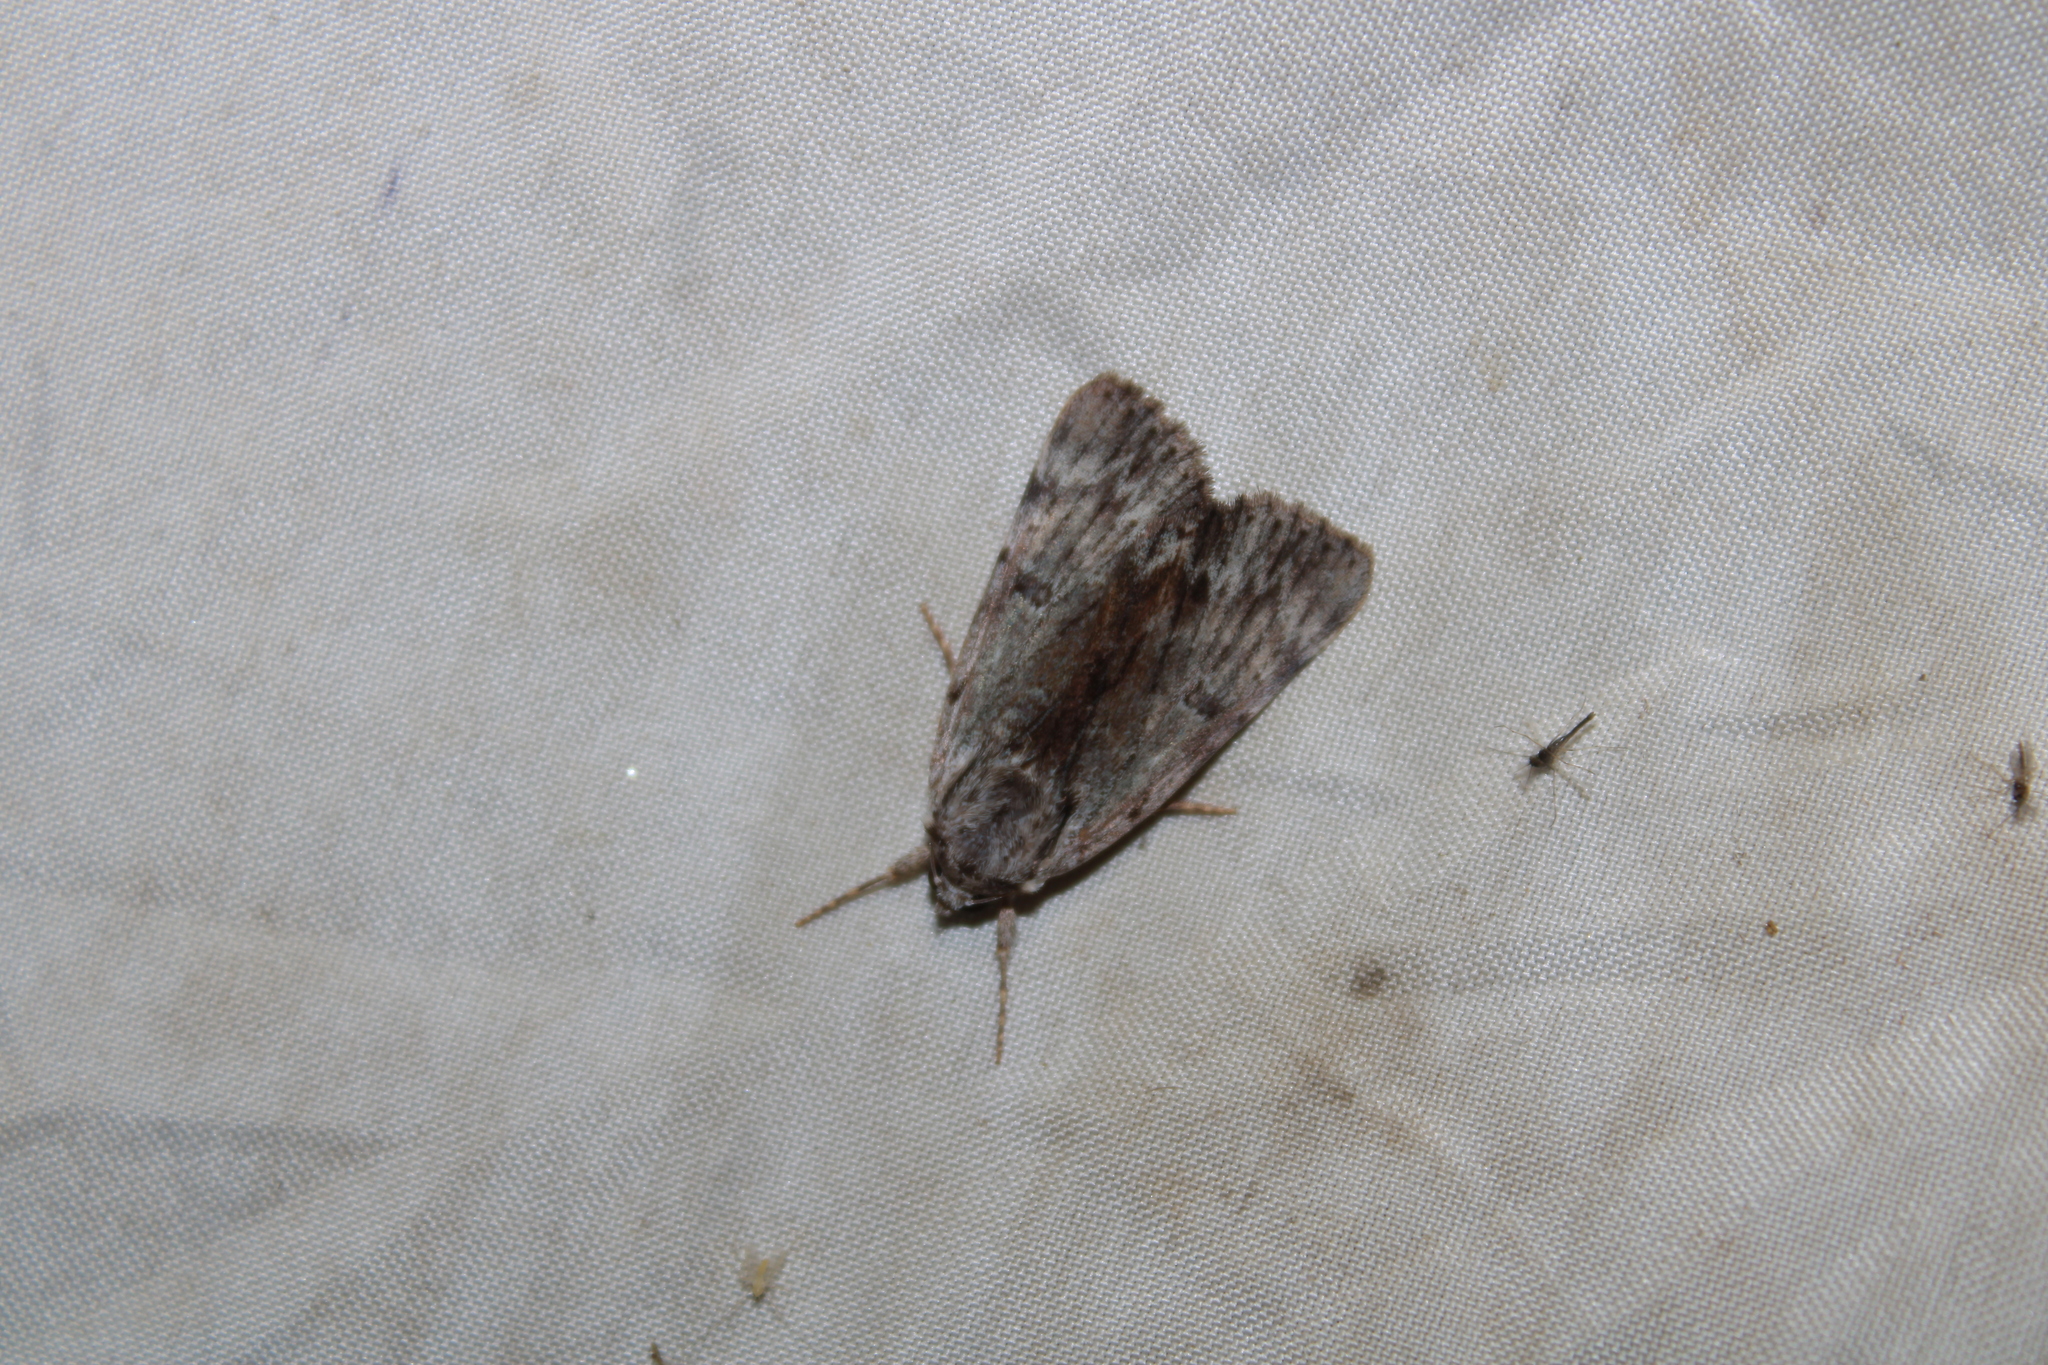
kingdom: Animalia
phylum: Arthropoda
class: Insecta
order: Lepidoptera
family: Erebidae
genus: Catocala
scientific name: Catocala gracilis
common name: Graceful underwing
